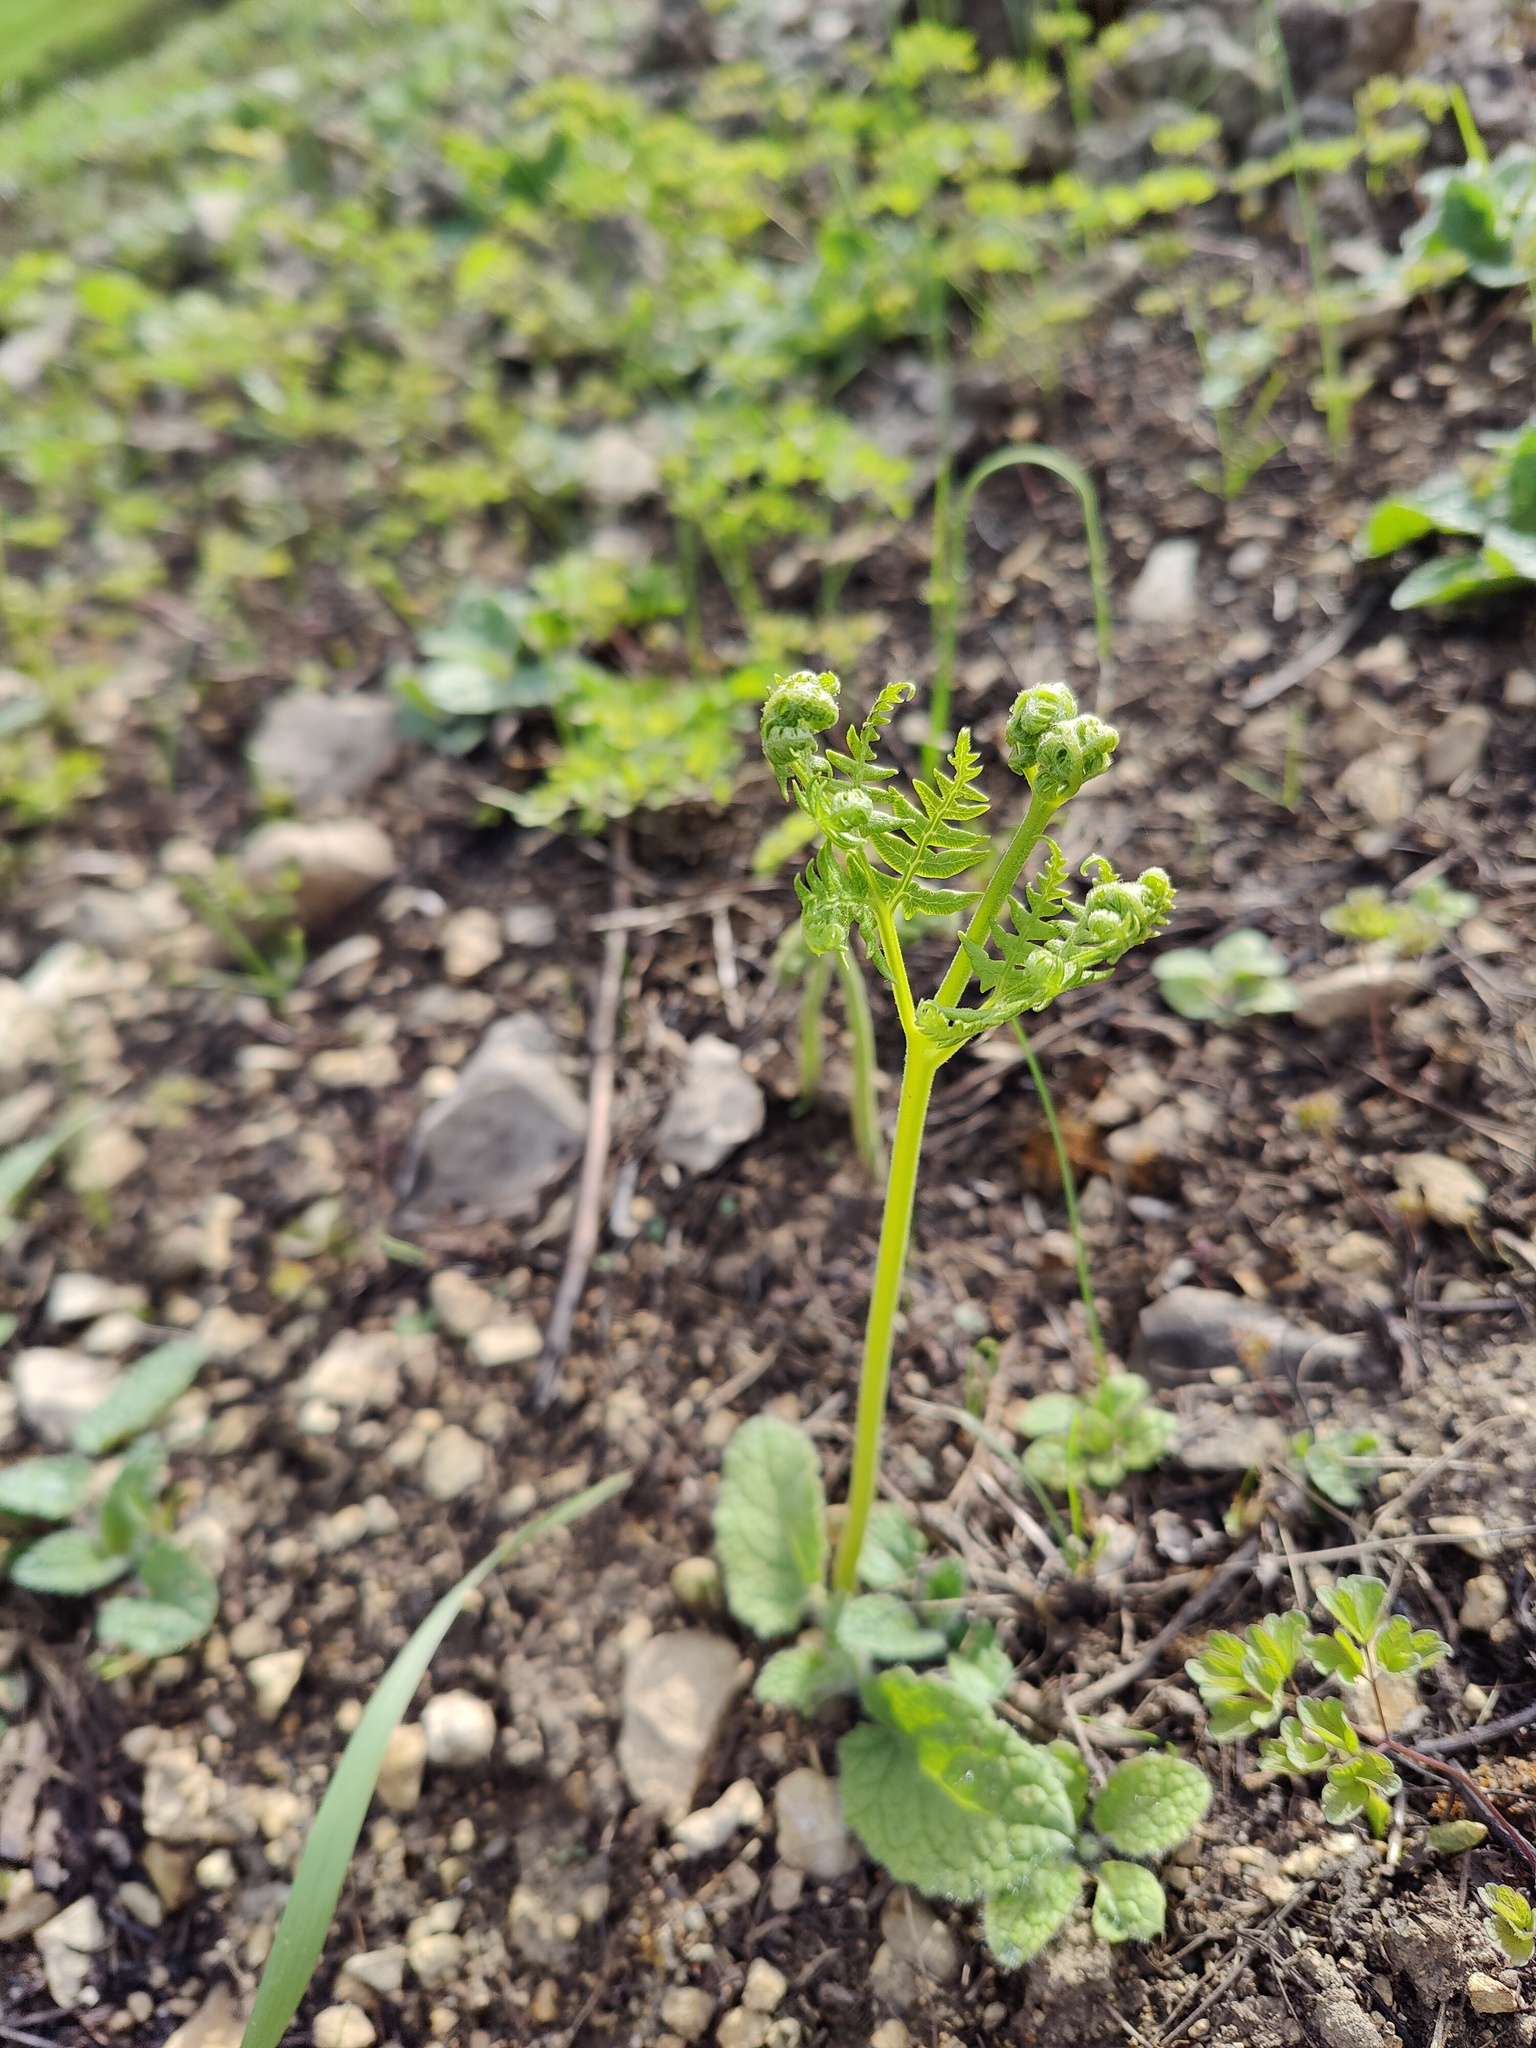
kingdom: Plantae
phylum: Tracheophyta
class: Polypodiopsida
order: Polypodiales
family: Dennstaedtiaceae
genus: Pteridium
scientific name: Pteridium aquilinum
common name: Bracken
